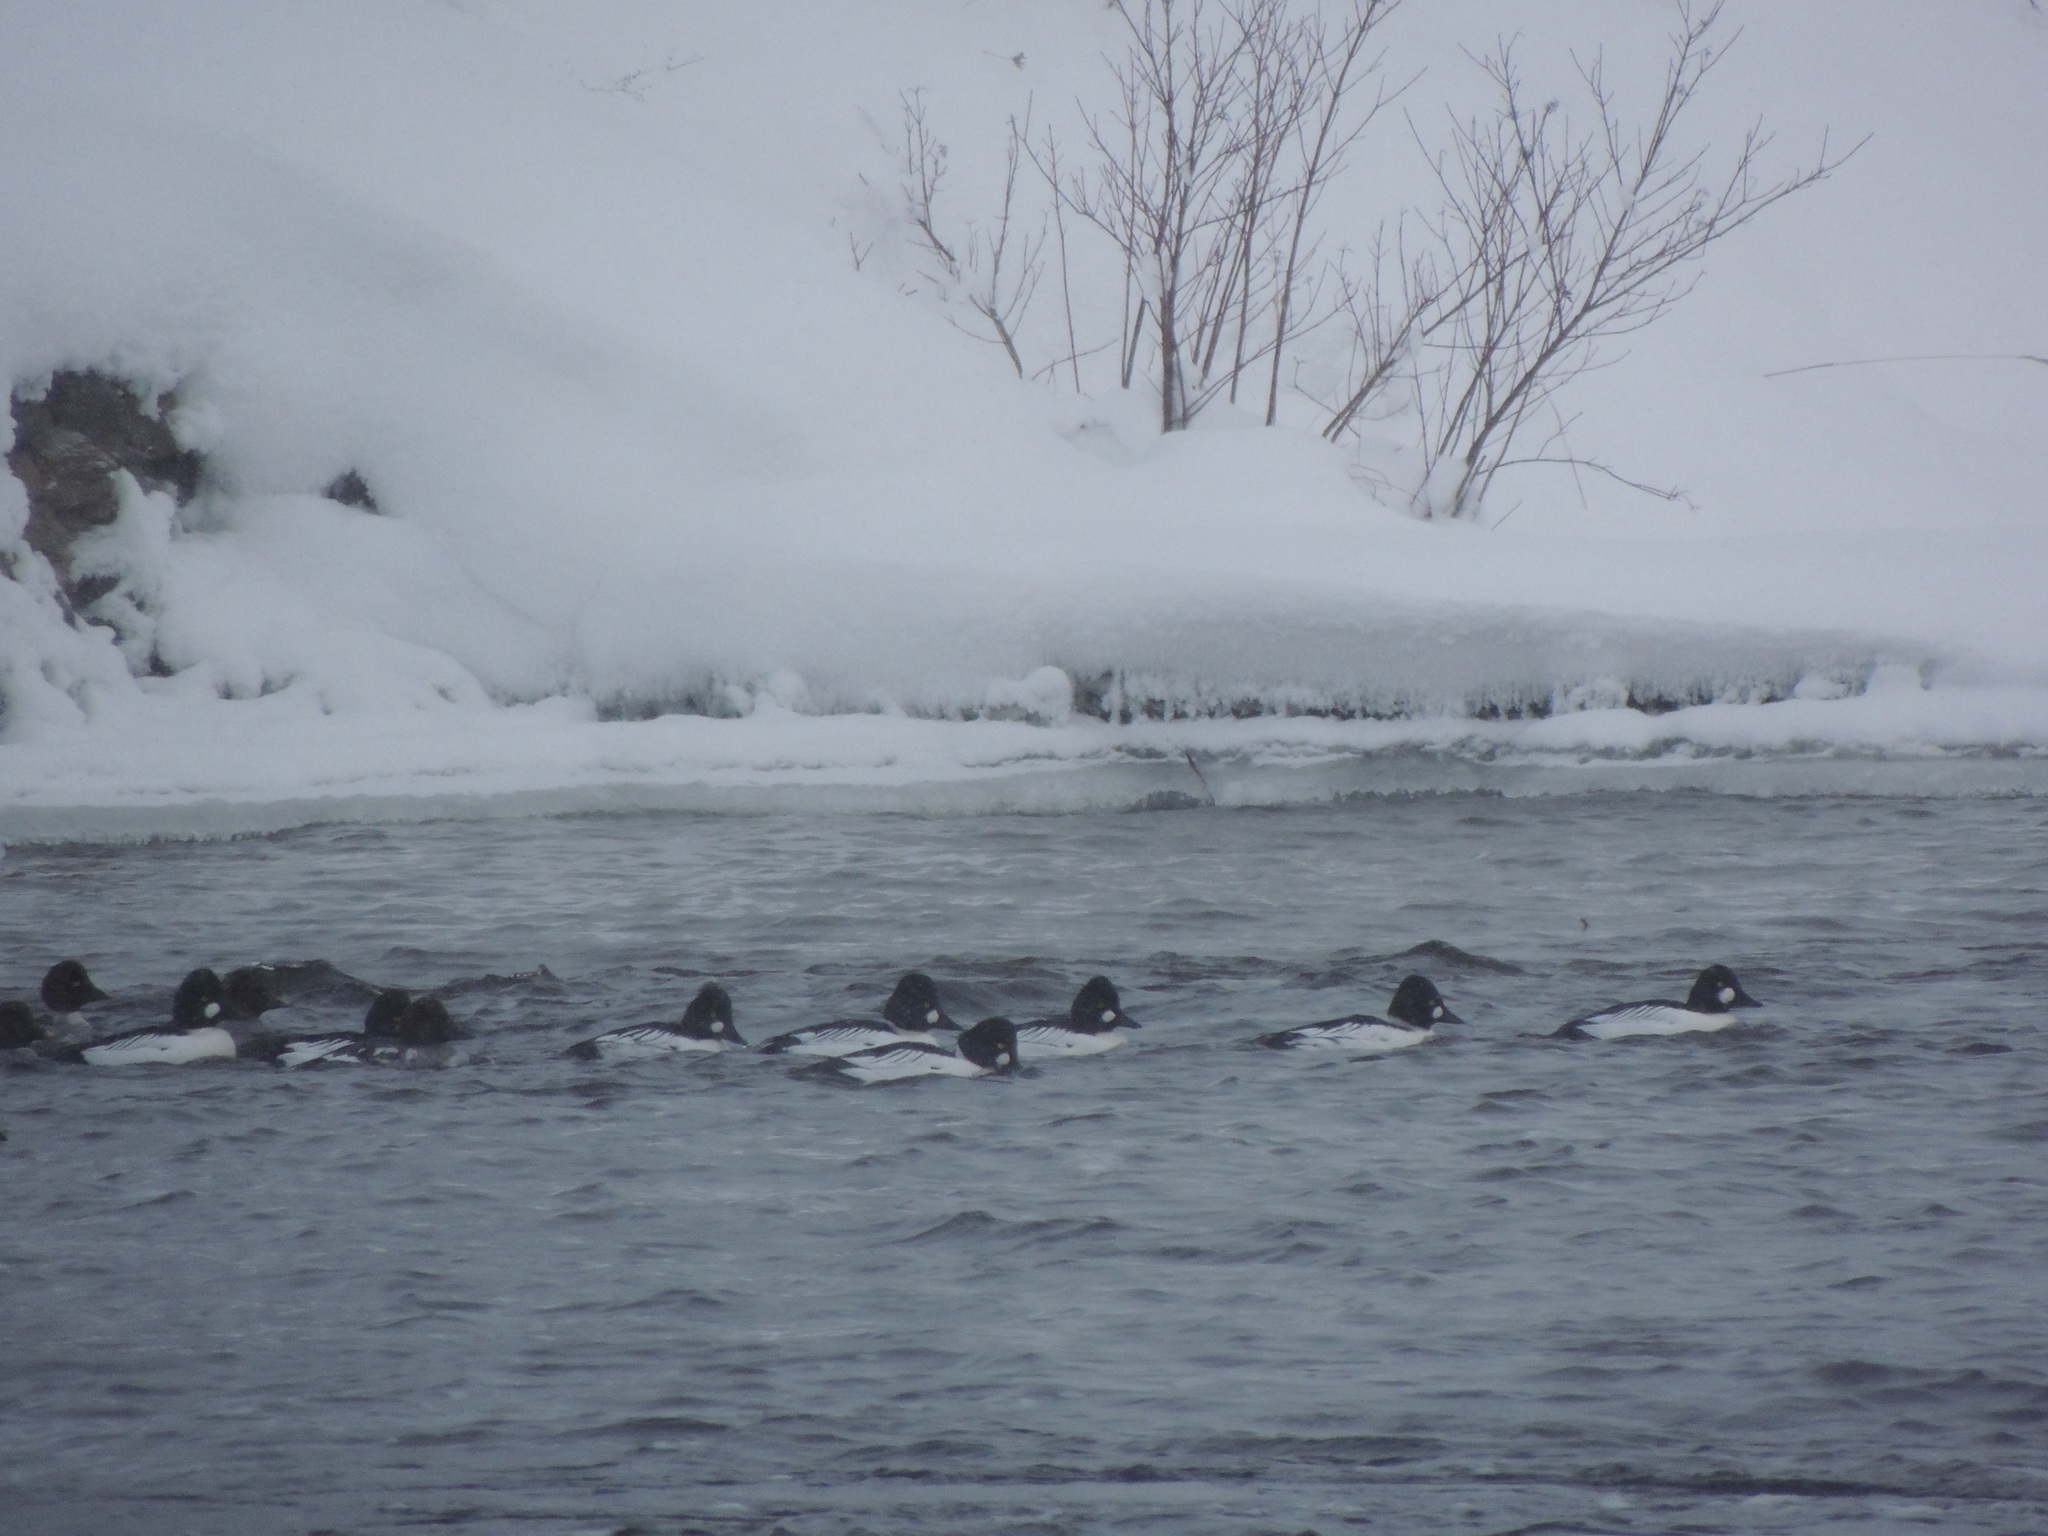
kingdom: Animalia
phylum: Chordata
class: Aves
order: Anseriformes
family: Anatidae
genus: Bucephala
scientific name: Bucephala clangula
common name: Common goldeneye
